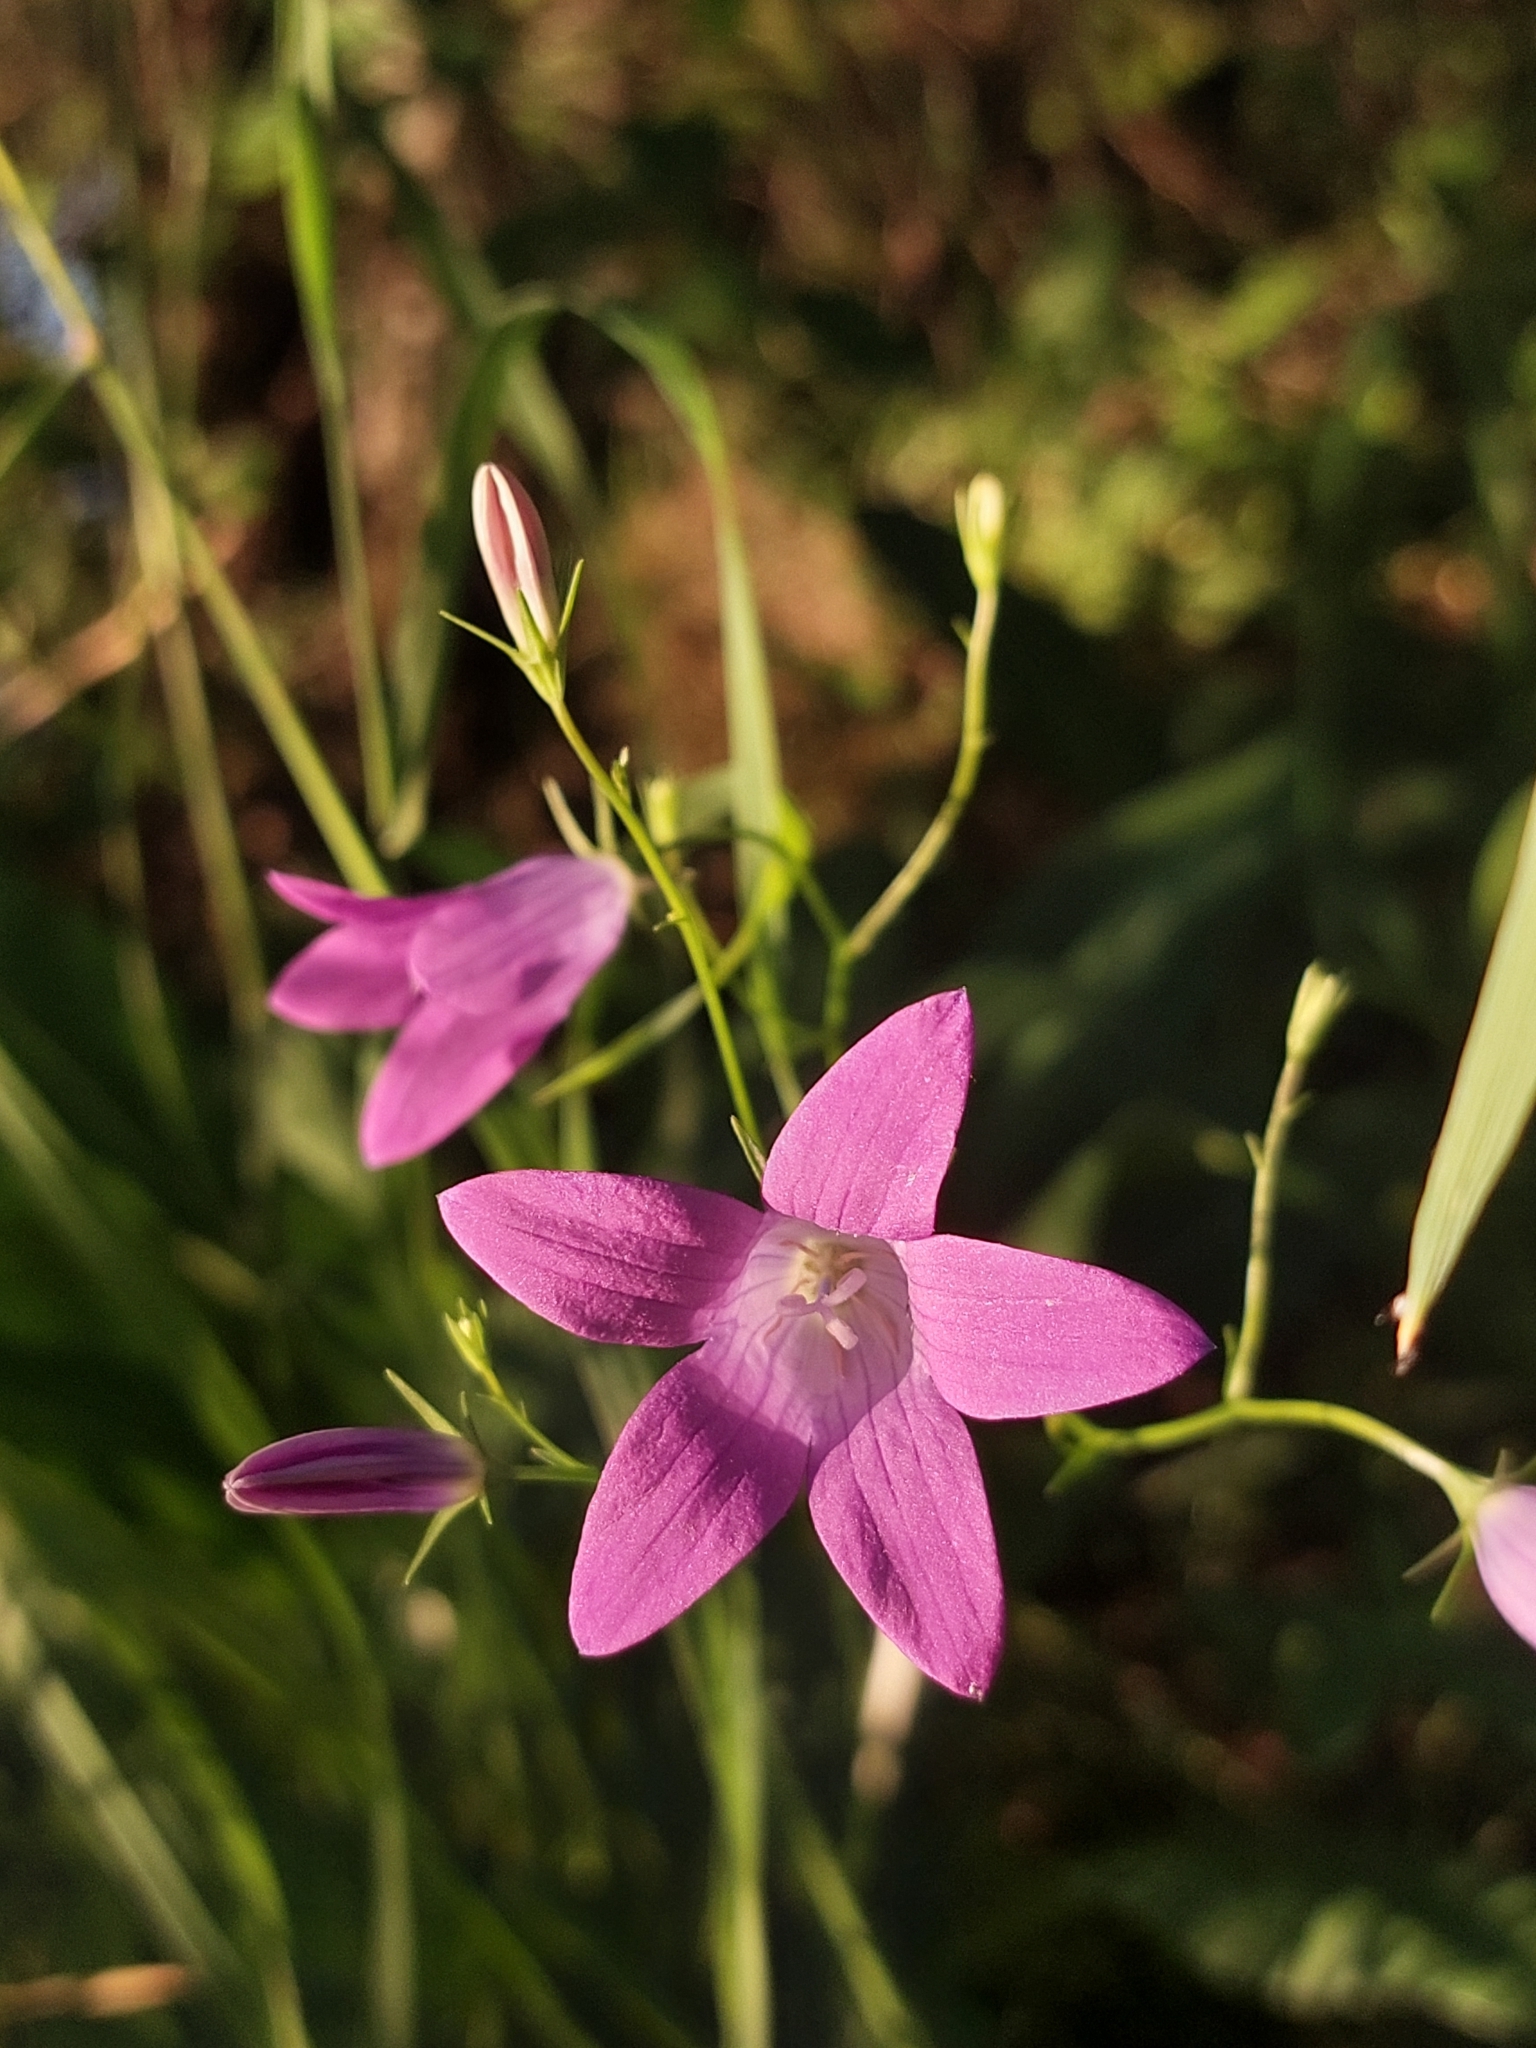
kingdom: Plantae
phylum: Tracheophyta
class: Magnoliopsida
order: Asterales
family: Campanulaceae
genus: Campanula
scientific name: Campanula patula
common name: Spreading bellflower
